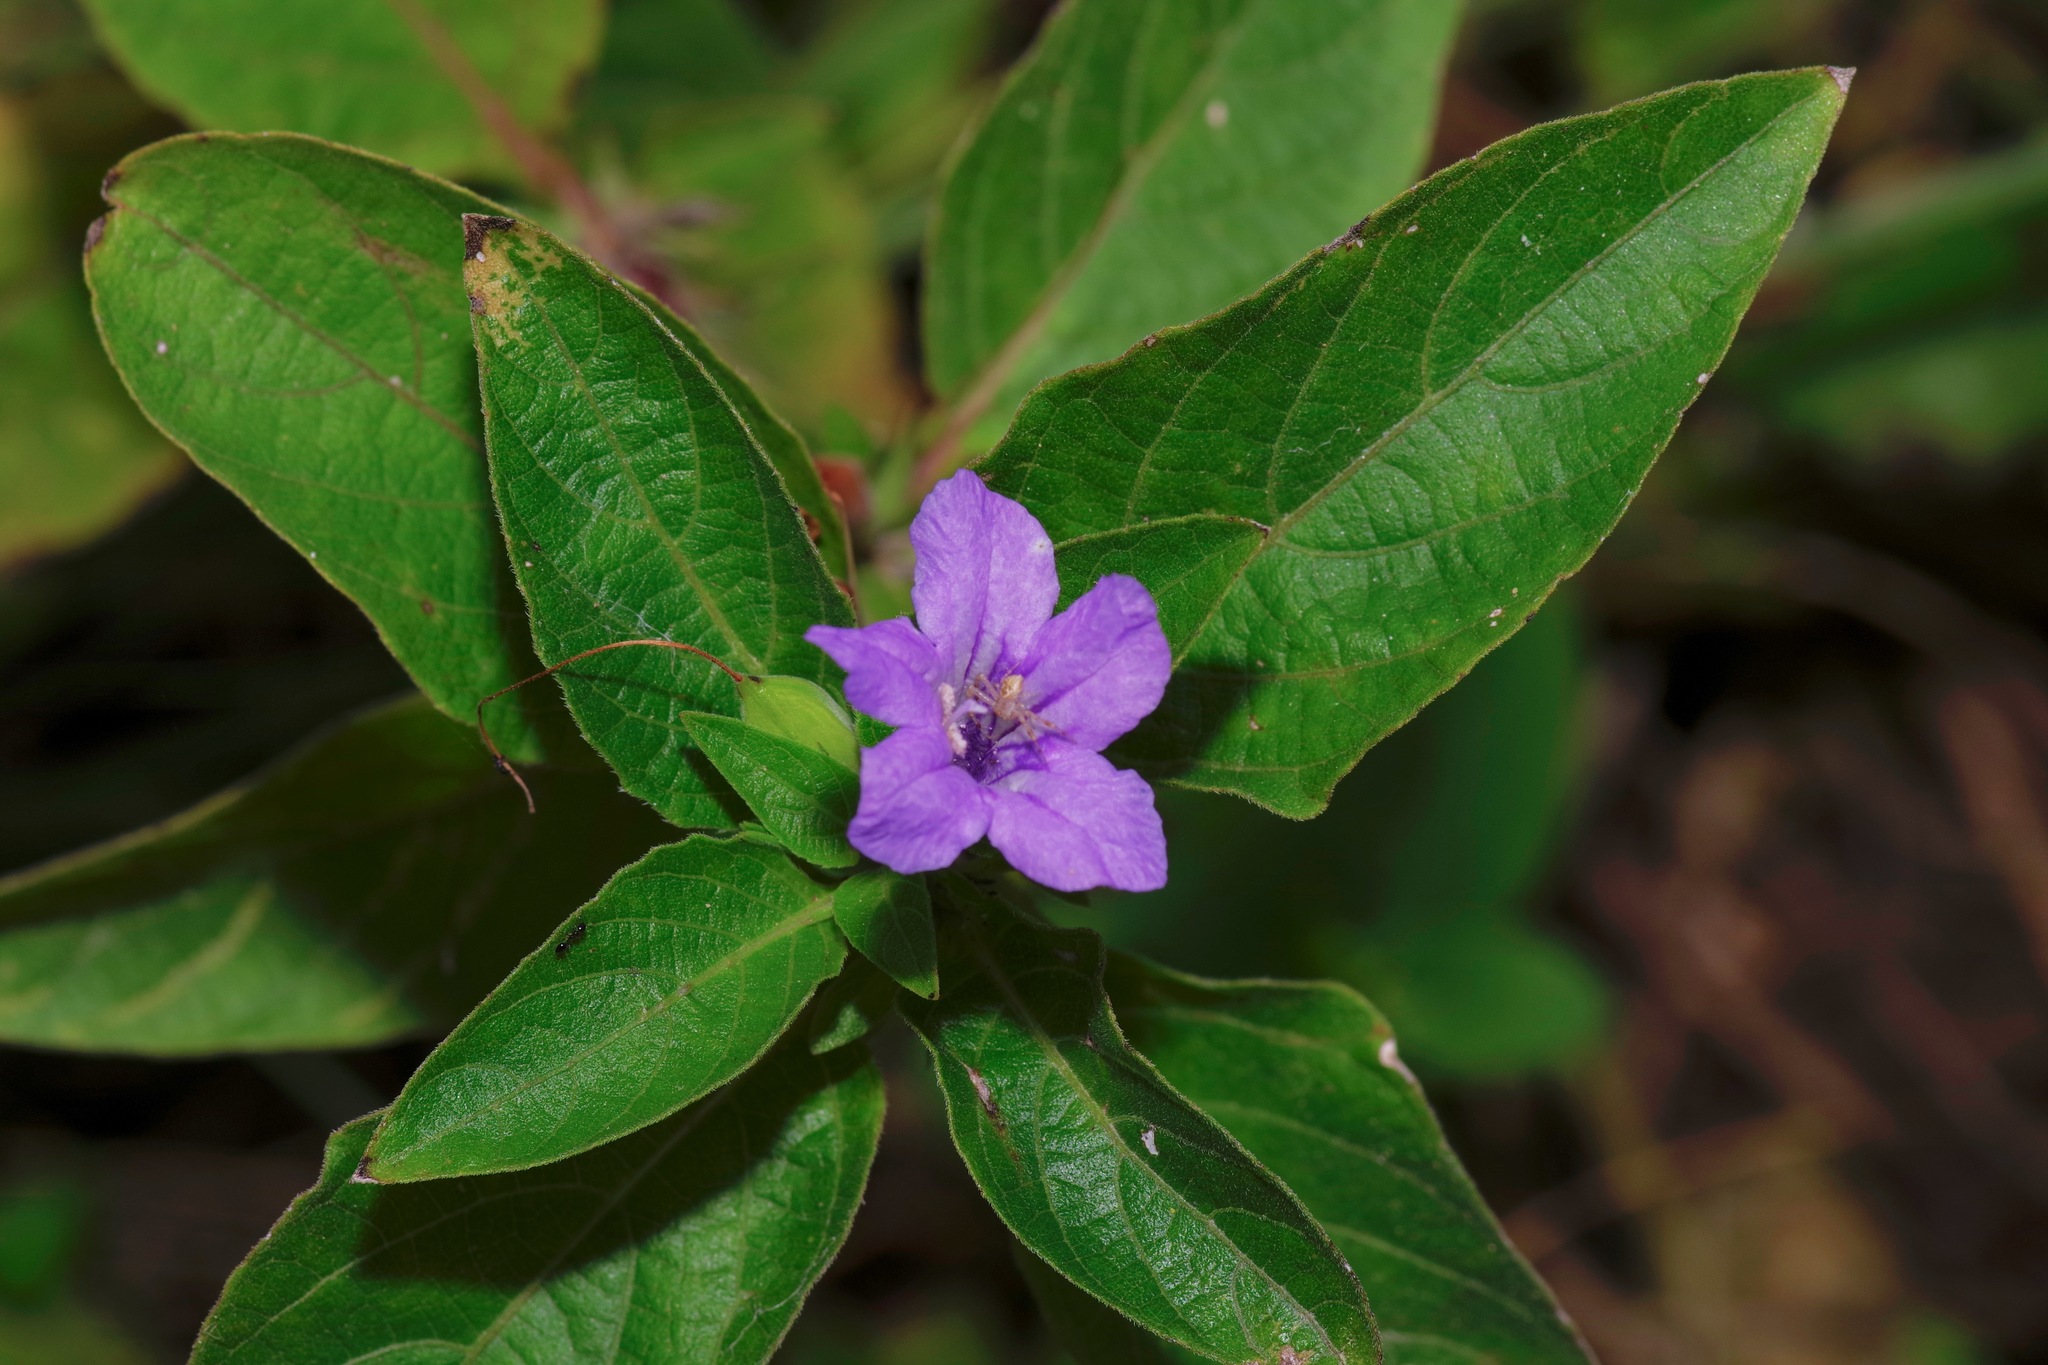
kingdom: Plantae
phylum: Tracheophyta
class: Magnoliopsida
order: Lamiales
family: Acanthaceae
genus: Ruellia
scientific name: Ruellia drummondiana
